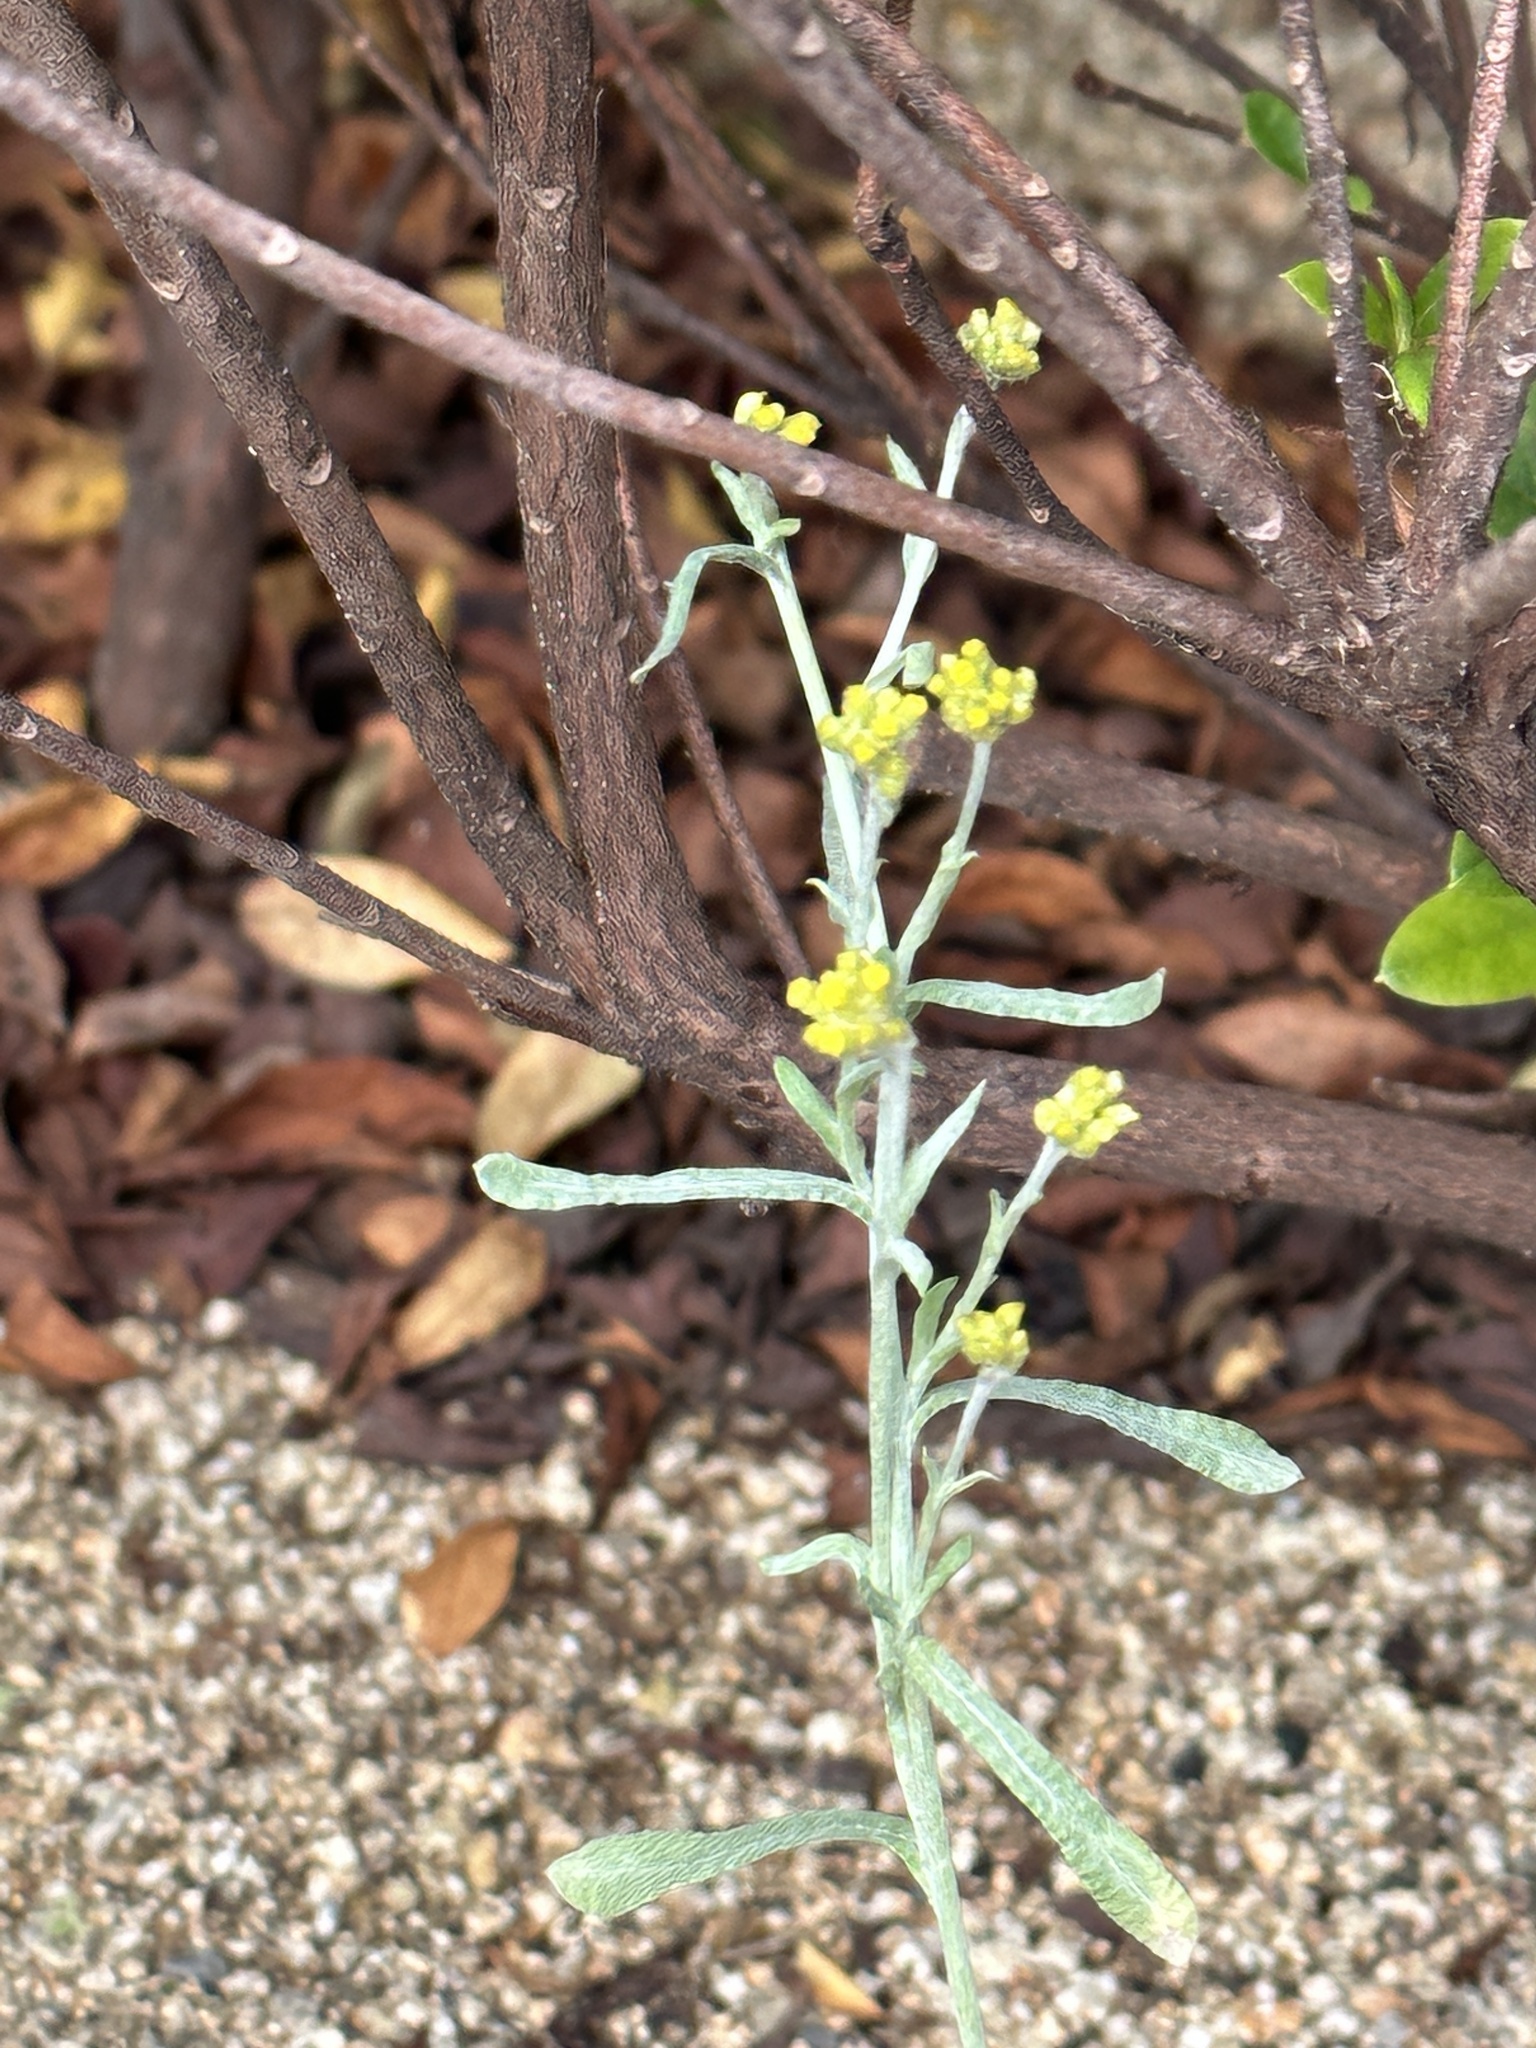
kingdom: Plantae
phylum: Tracheophyta
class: Magnoliopsida
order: Asterales
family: Asteraceae
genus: Pseudognaphalium
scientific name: Pseudognaphalium affine
